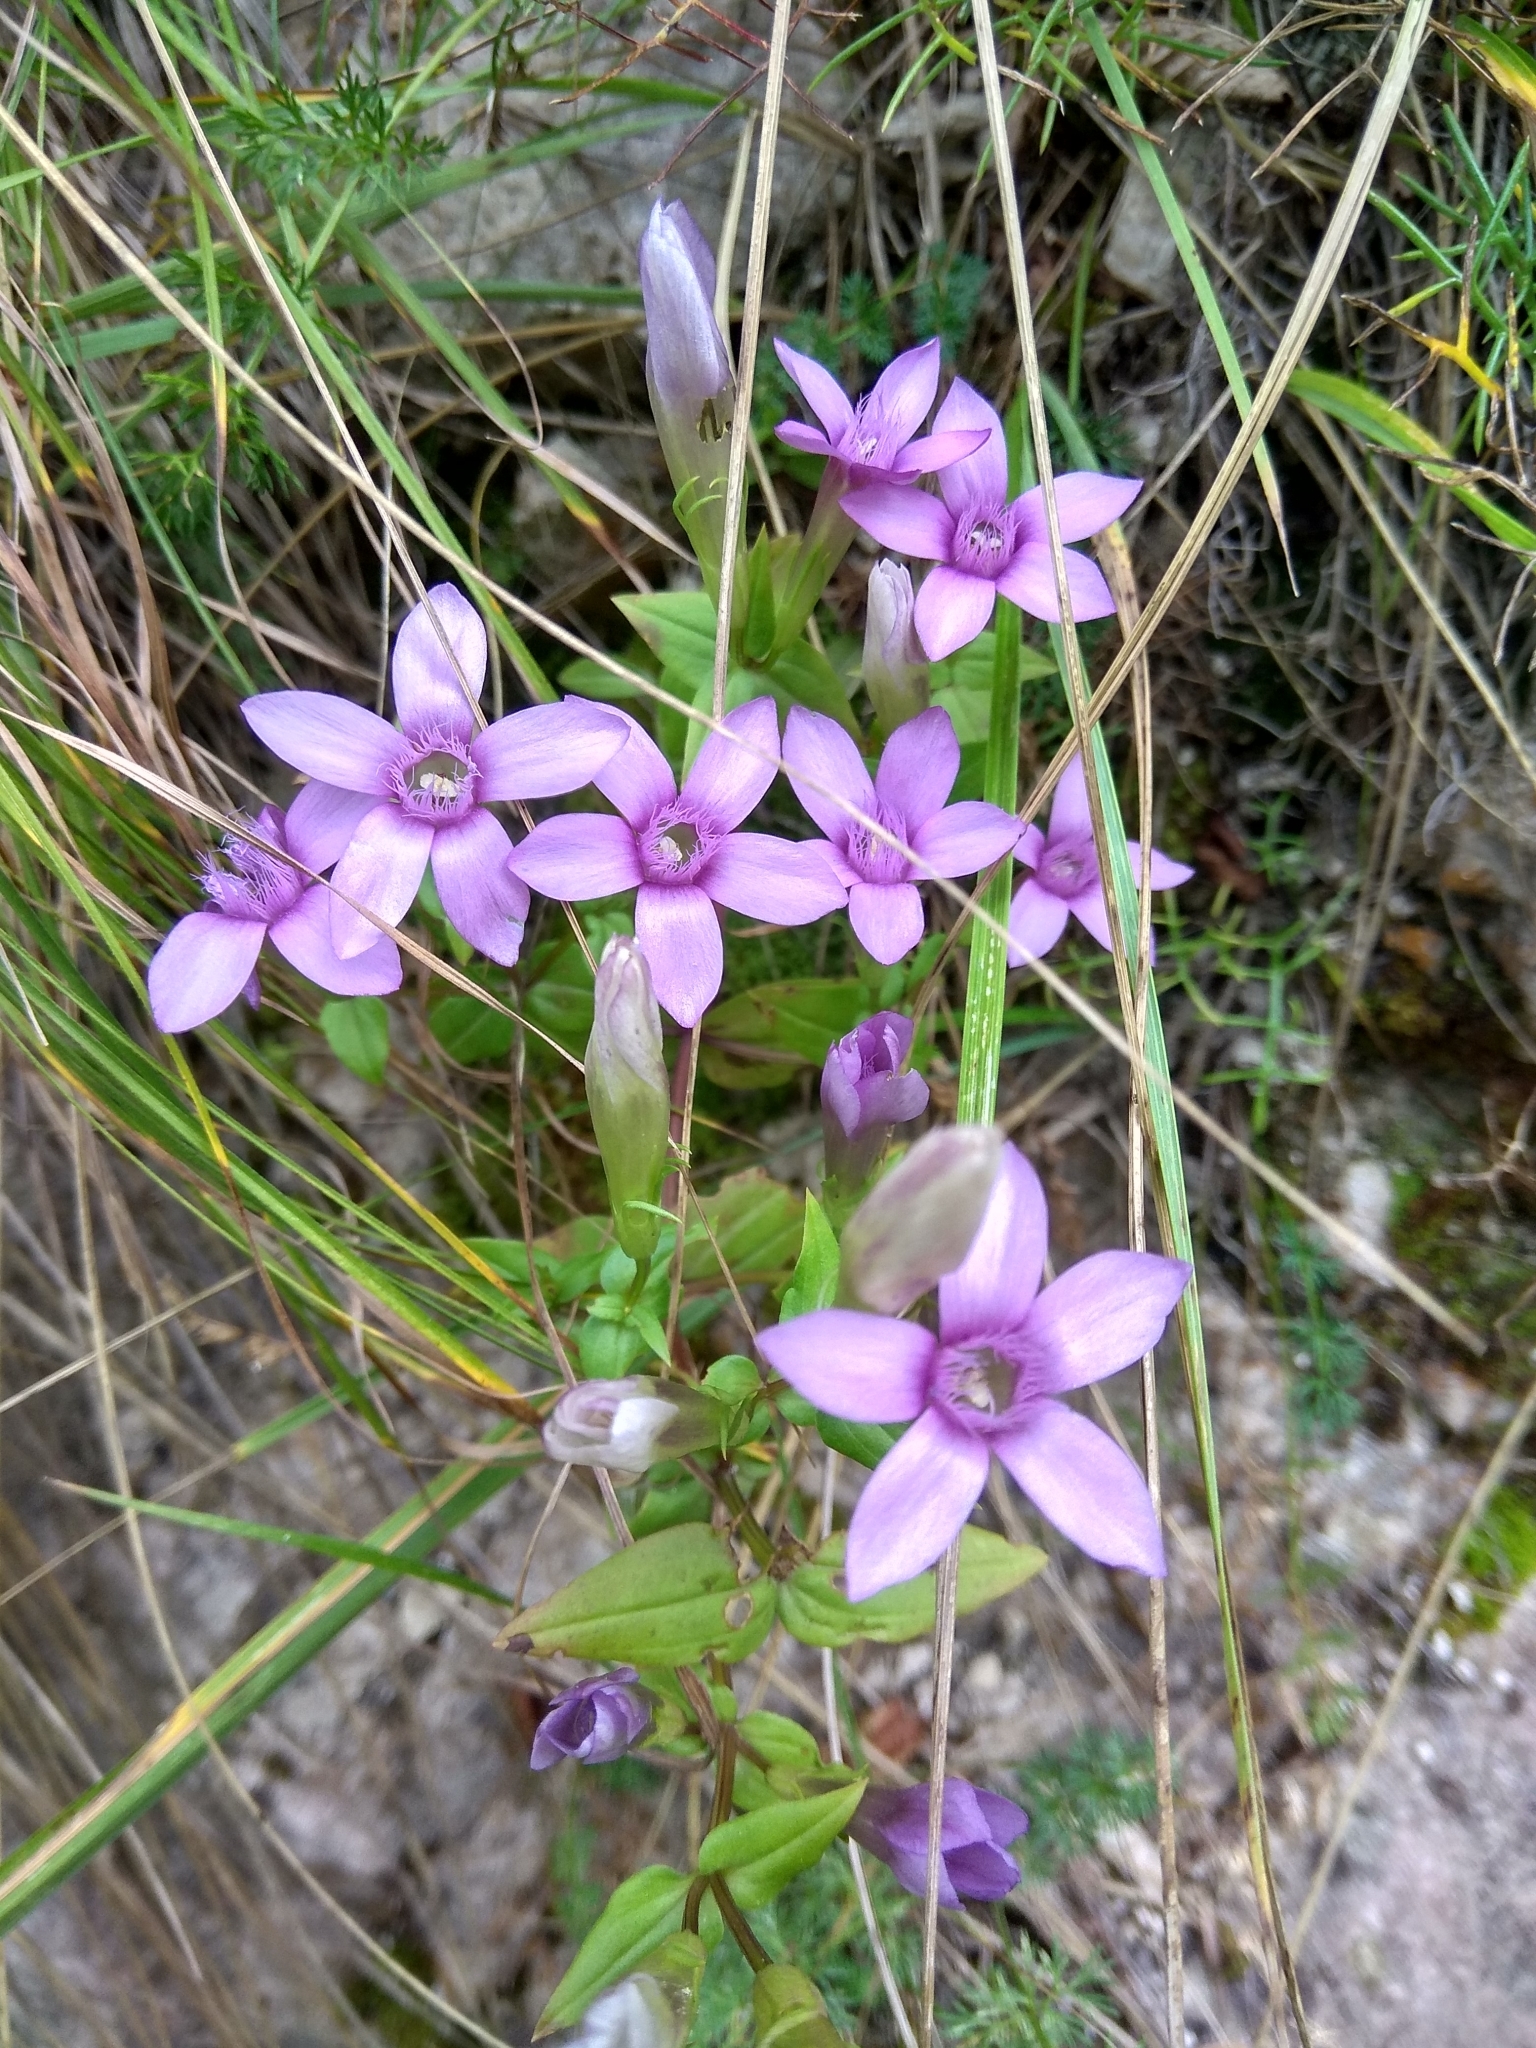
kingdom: Plantae
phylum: Tracheophyta
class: Magnoliopsida
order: Gentianales
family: Gentianaceae
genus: Gentianella
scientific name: Gentianella biebersteinii
